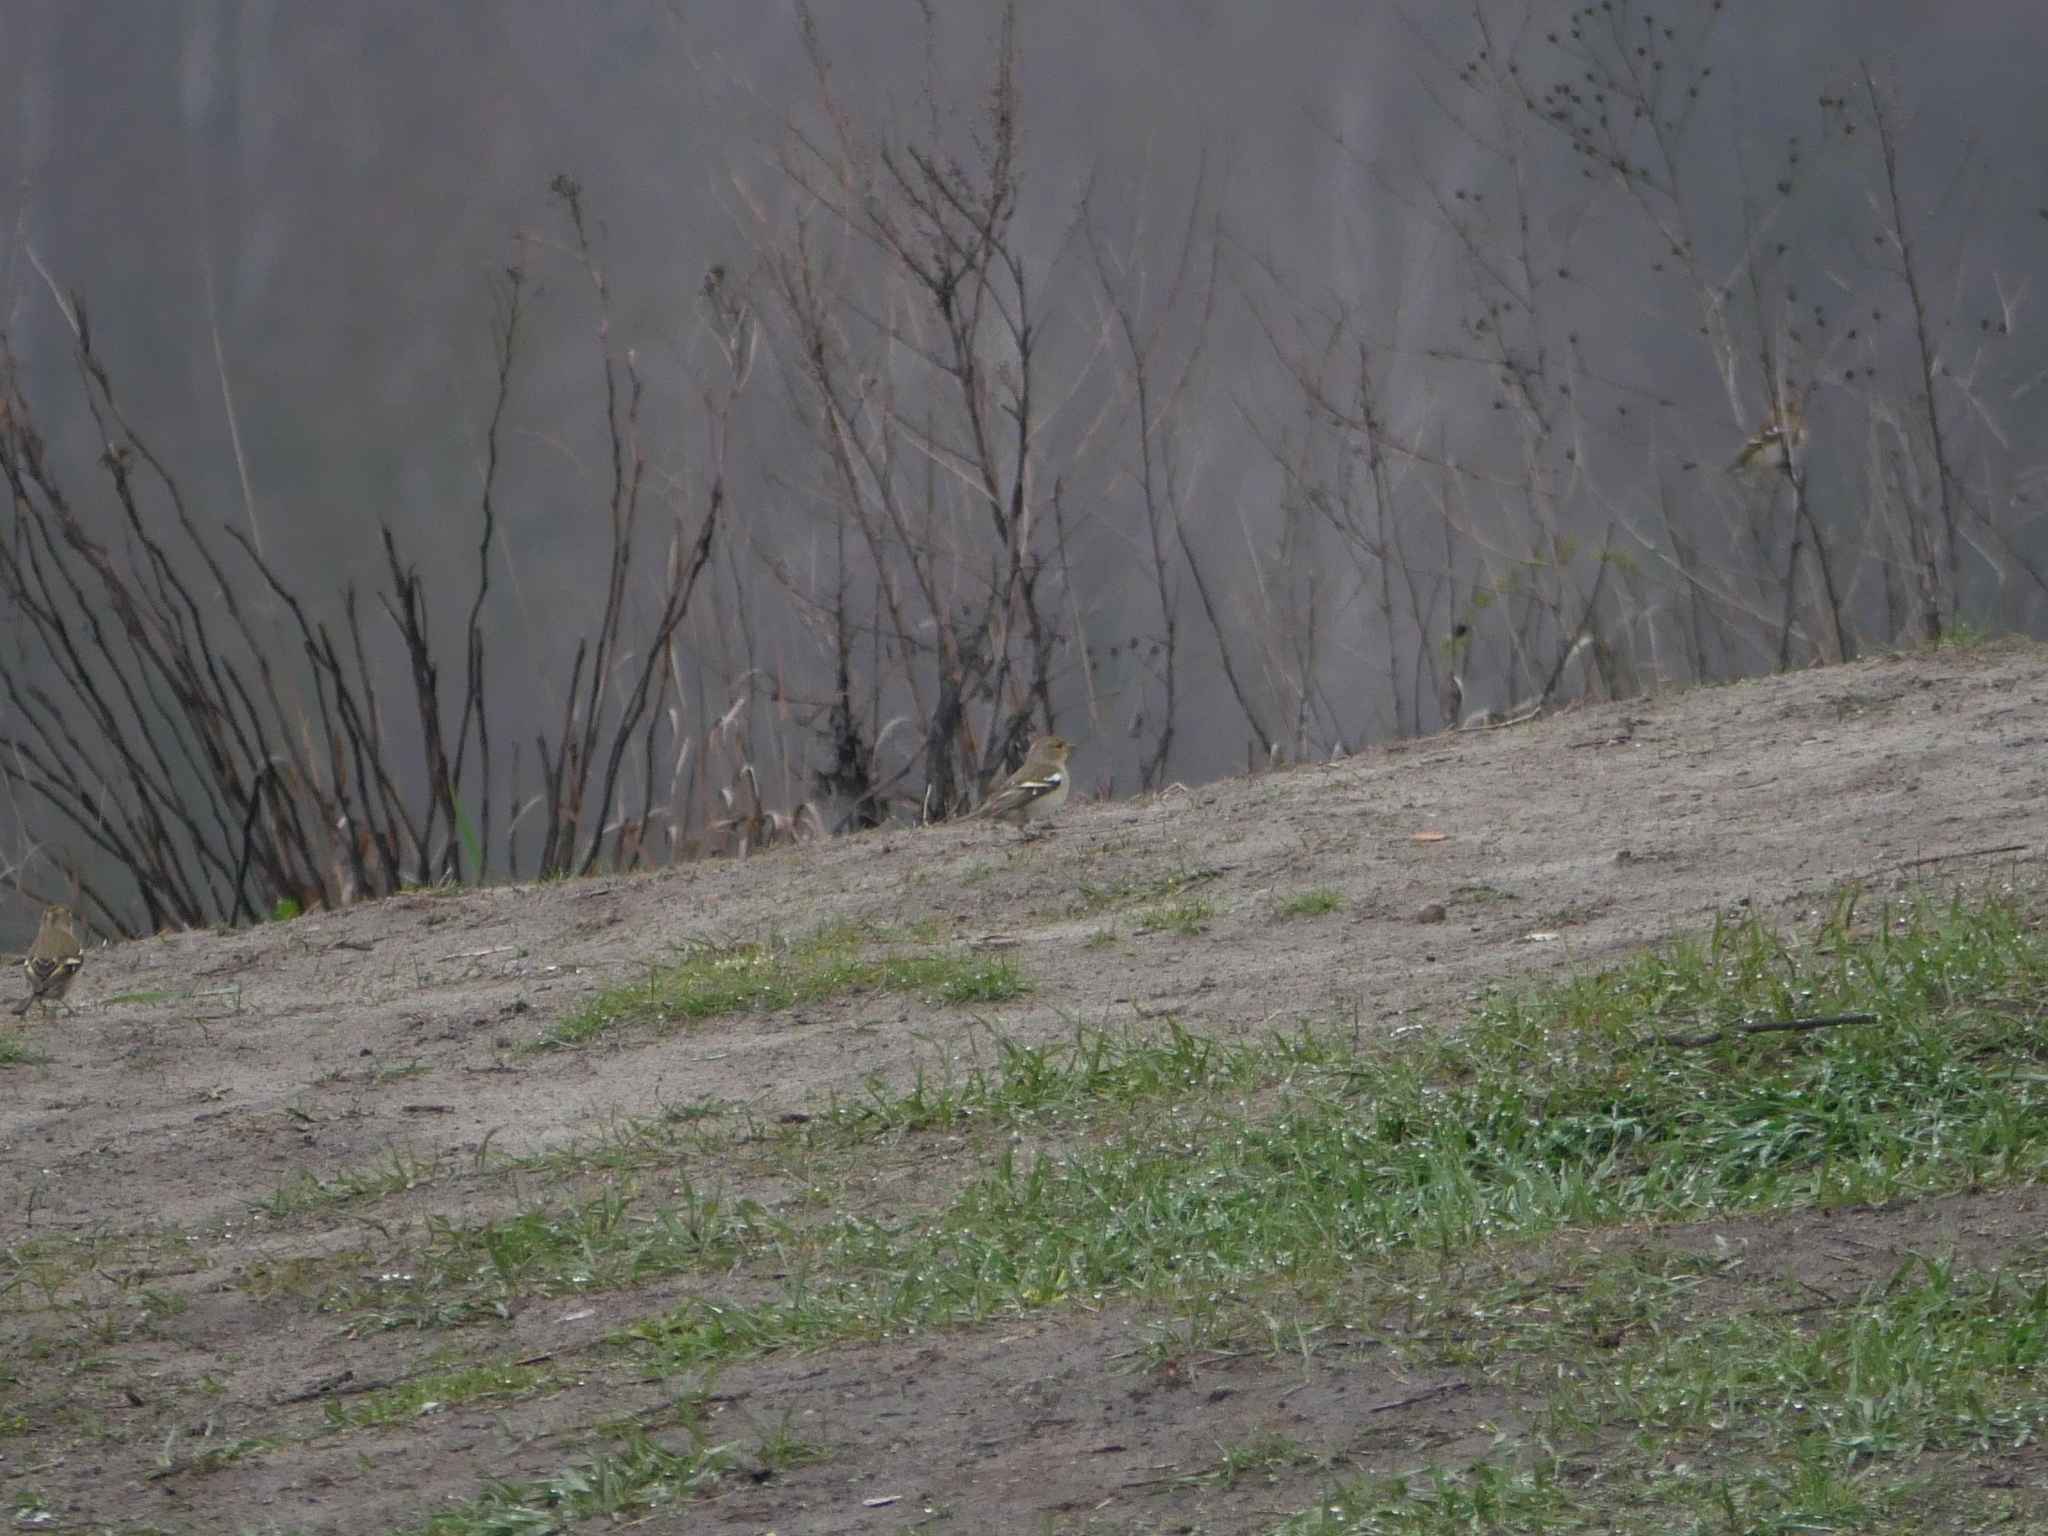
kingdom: Animalia
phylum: Chordata
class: Aves
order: Passeriformes
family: Fringillidae
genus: Fringilla
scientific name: Fringilla coelebs
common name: Common chaffinch
